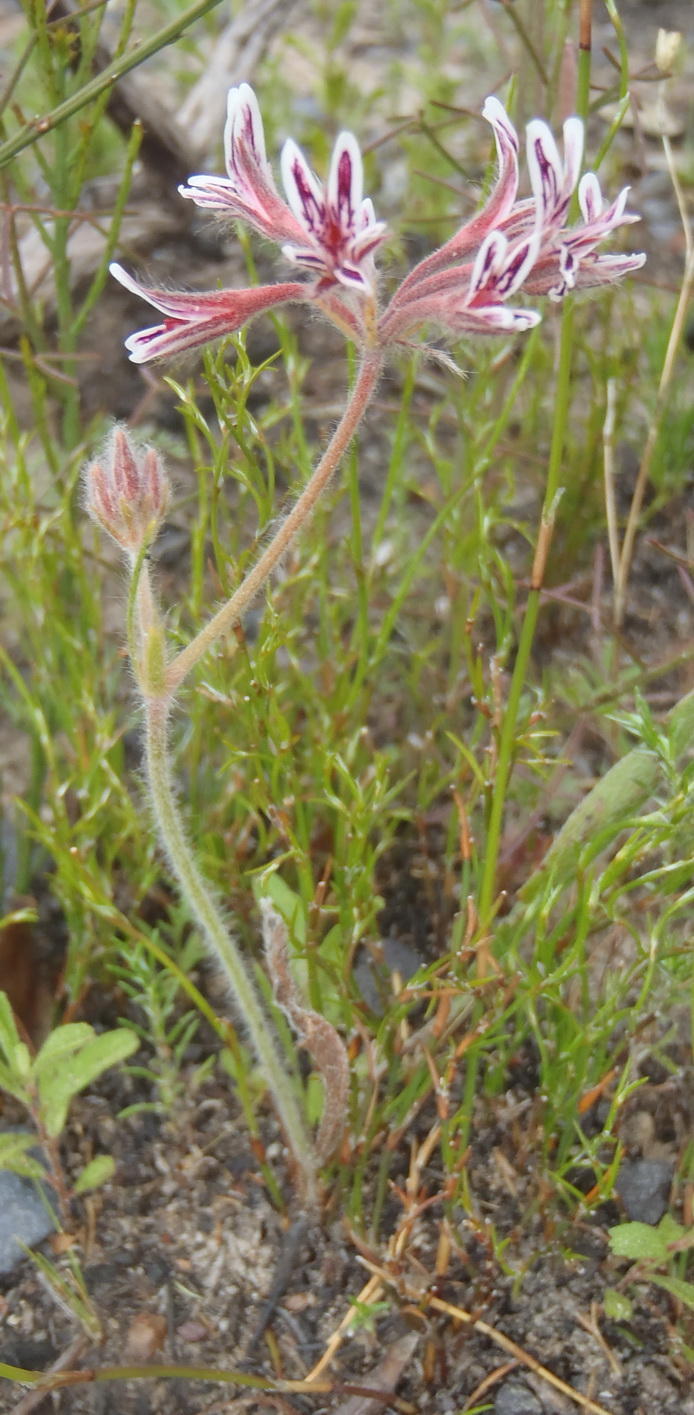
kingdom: Plantae
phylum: Tracheophyta
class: Magnoliopsida
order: Geraniales
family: Geraniaceae
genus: Pelargonium
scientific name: Pelargonium pilosellifolium
